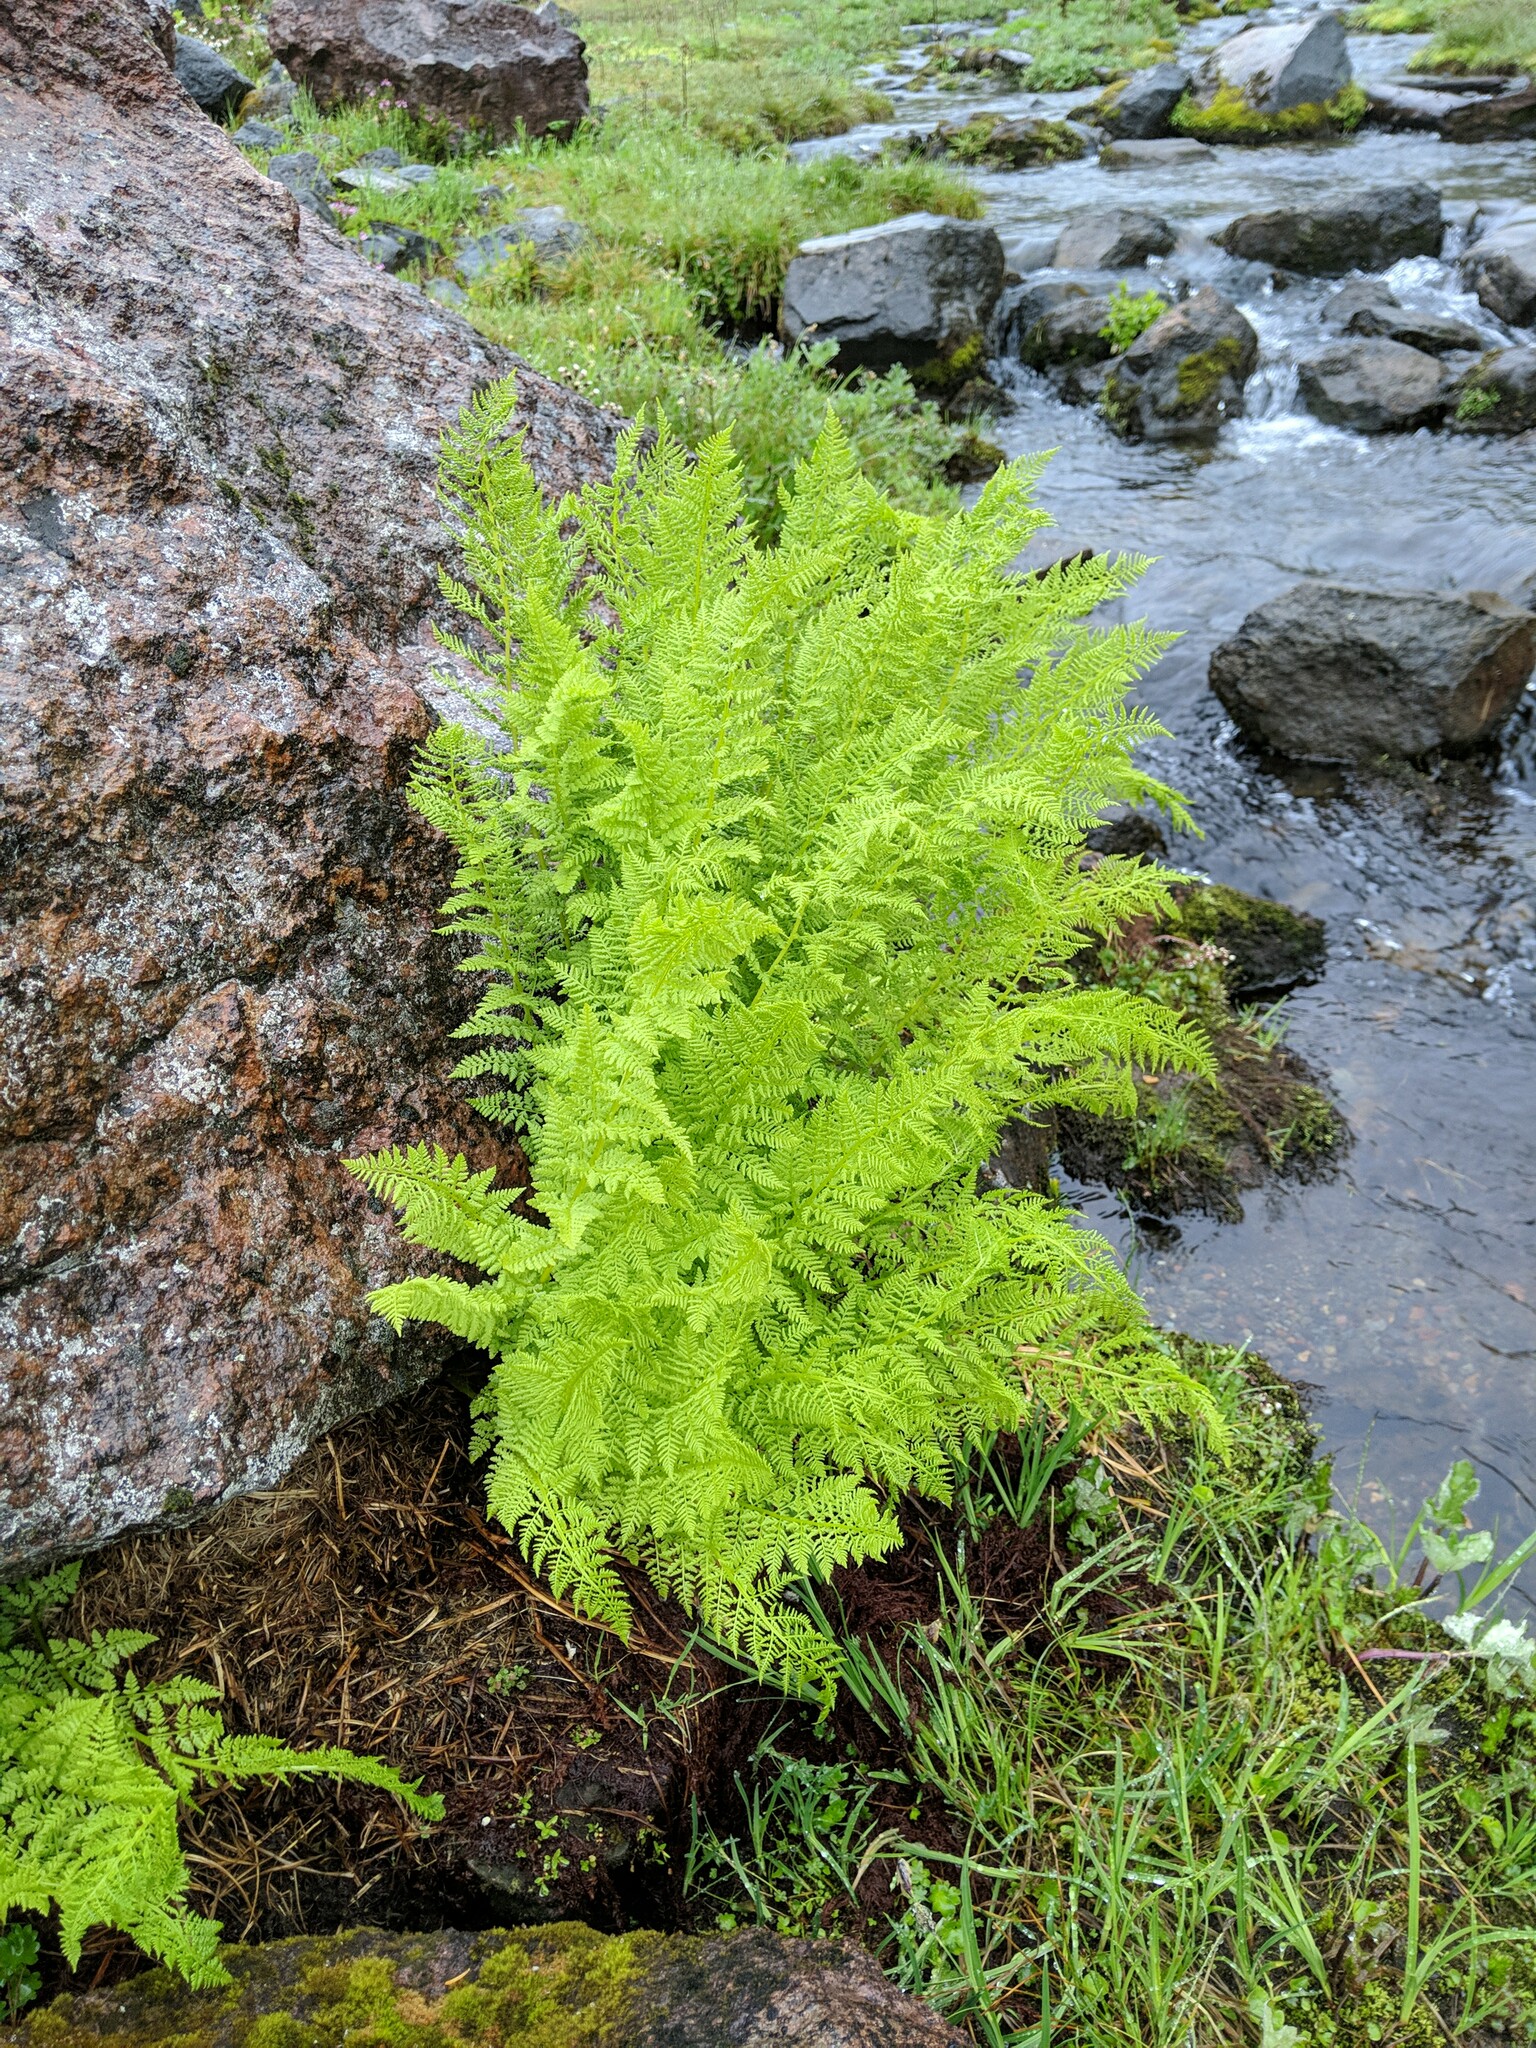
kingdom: Plantae
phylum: Tracheophyta
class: Polypodiopsida
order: Polypodiales
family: Athyriaceae
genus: Athyrium
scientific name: Athyrium americanum
